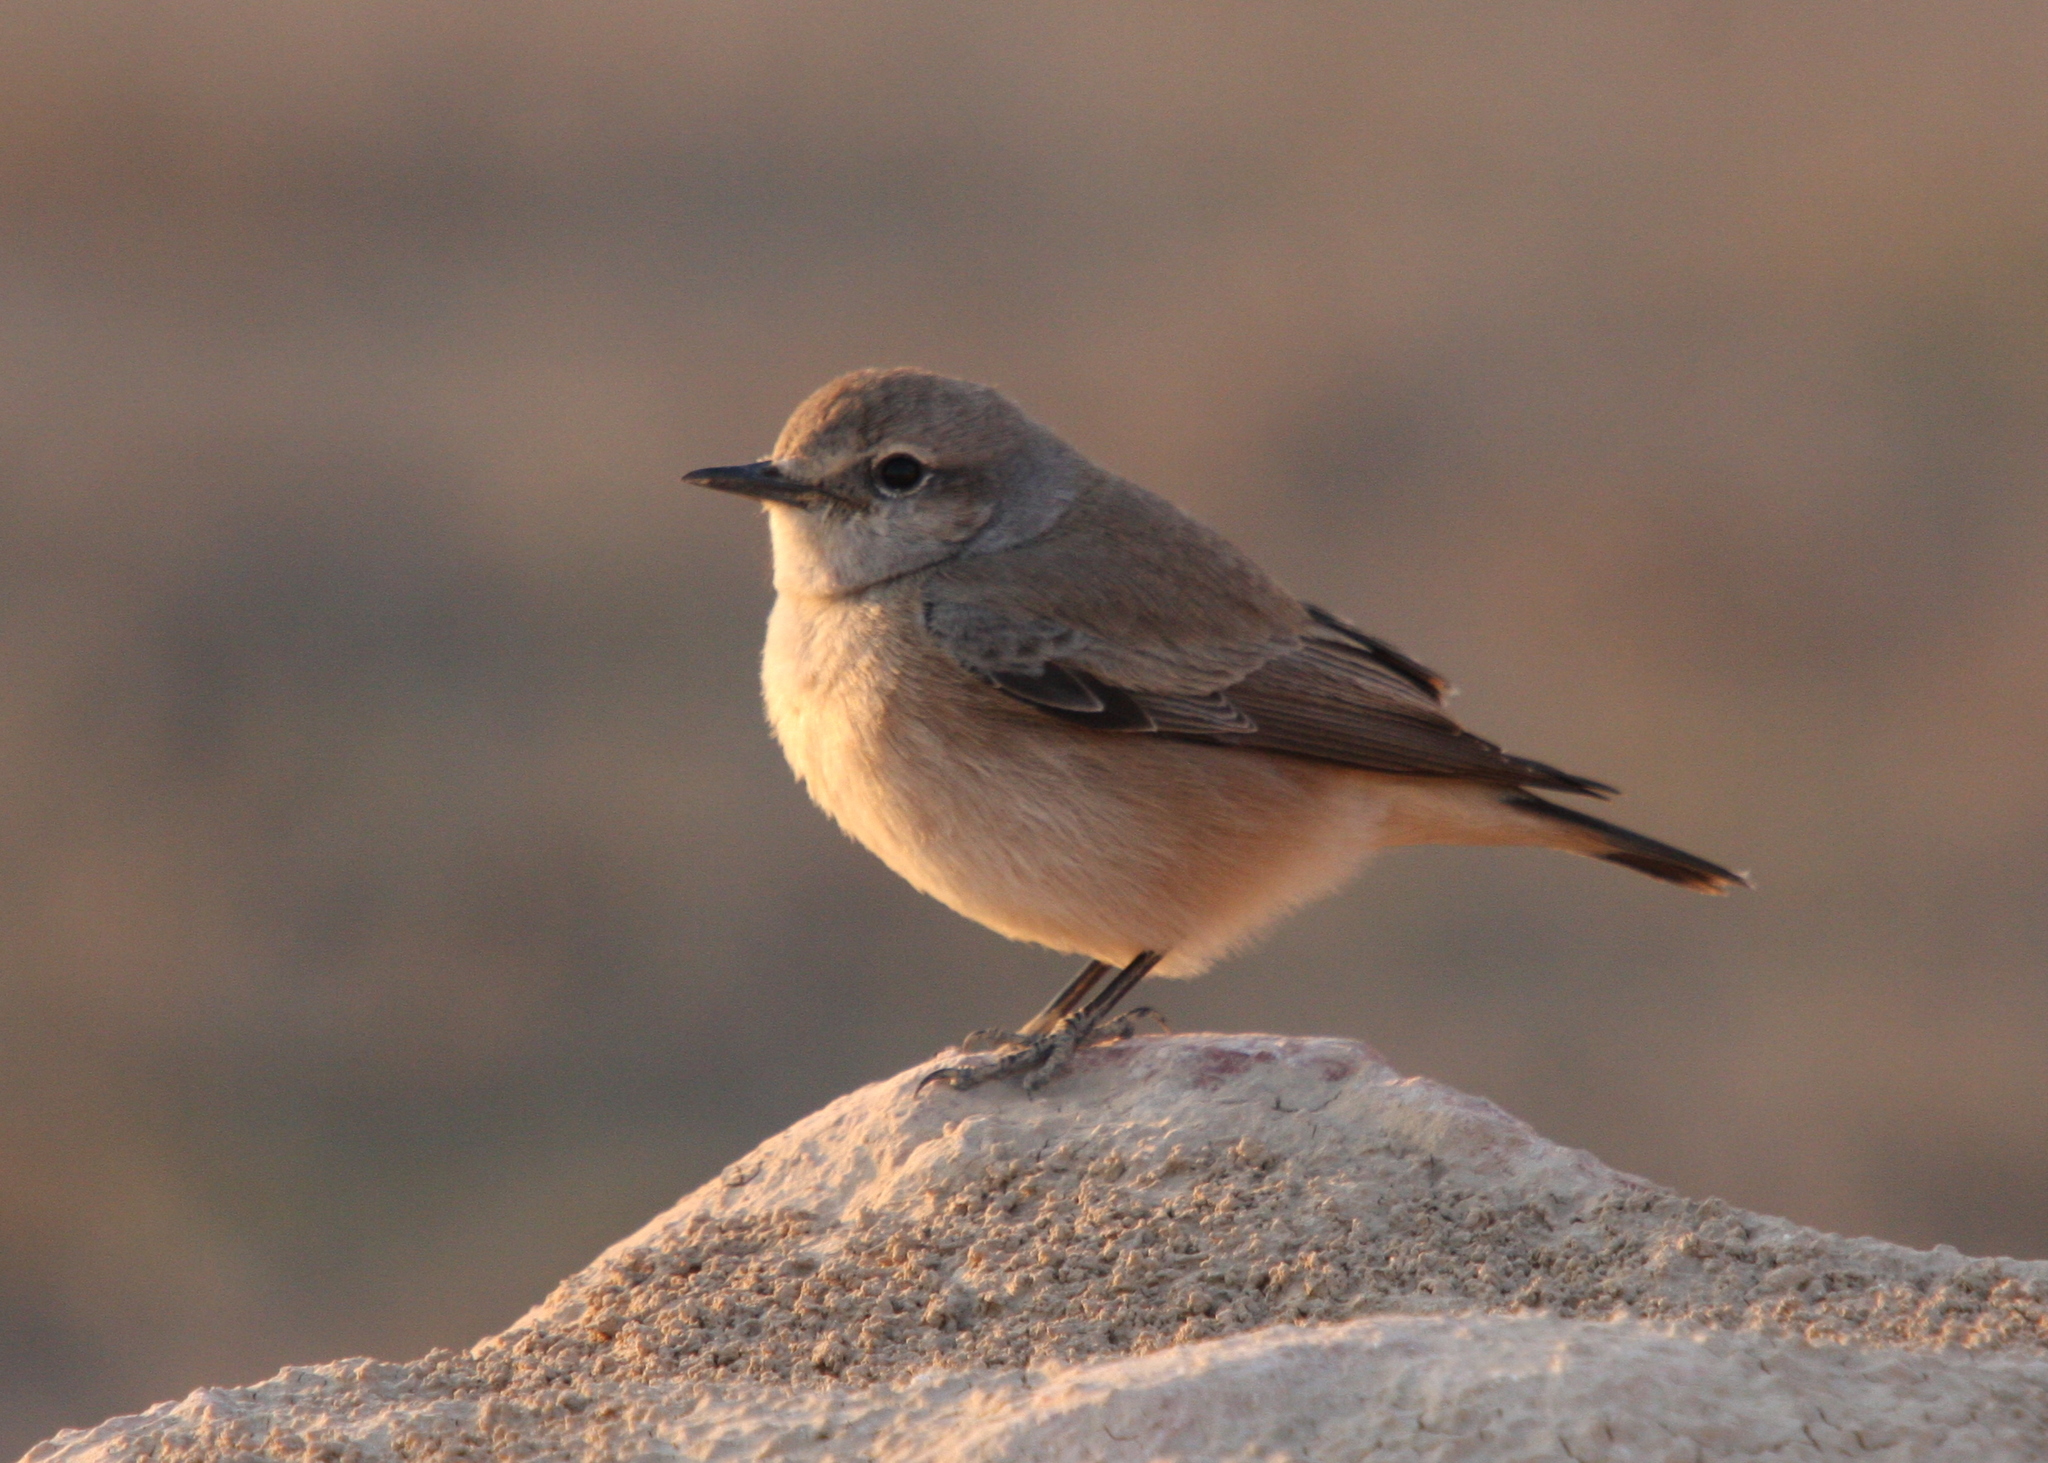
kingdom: Animalia
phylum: Chordata
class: Aves
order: Passeriformes
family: Muscicapidae
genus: Oenanthe
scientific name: Oenanthe chrysopygia
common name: Red-tailed wheatear
